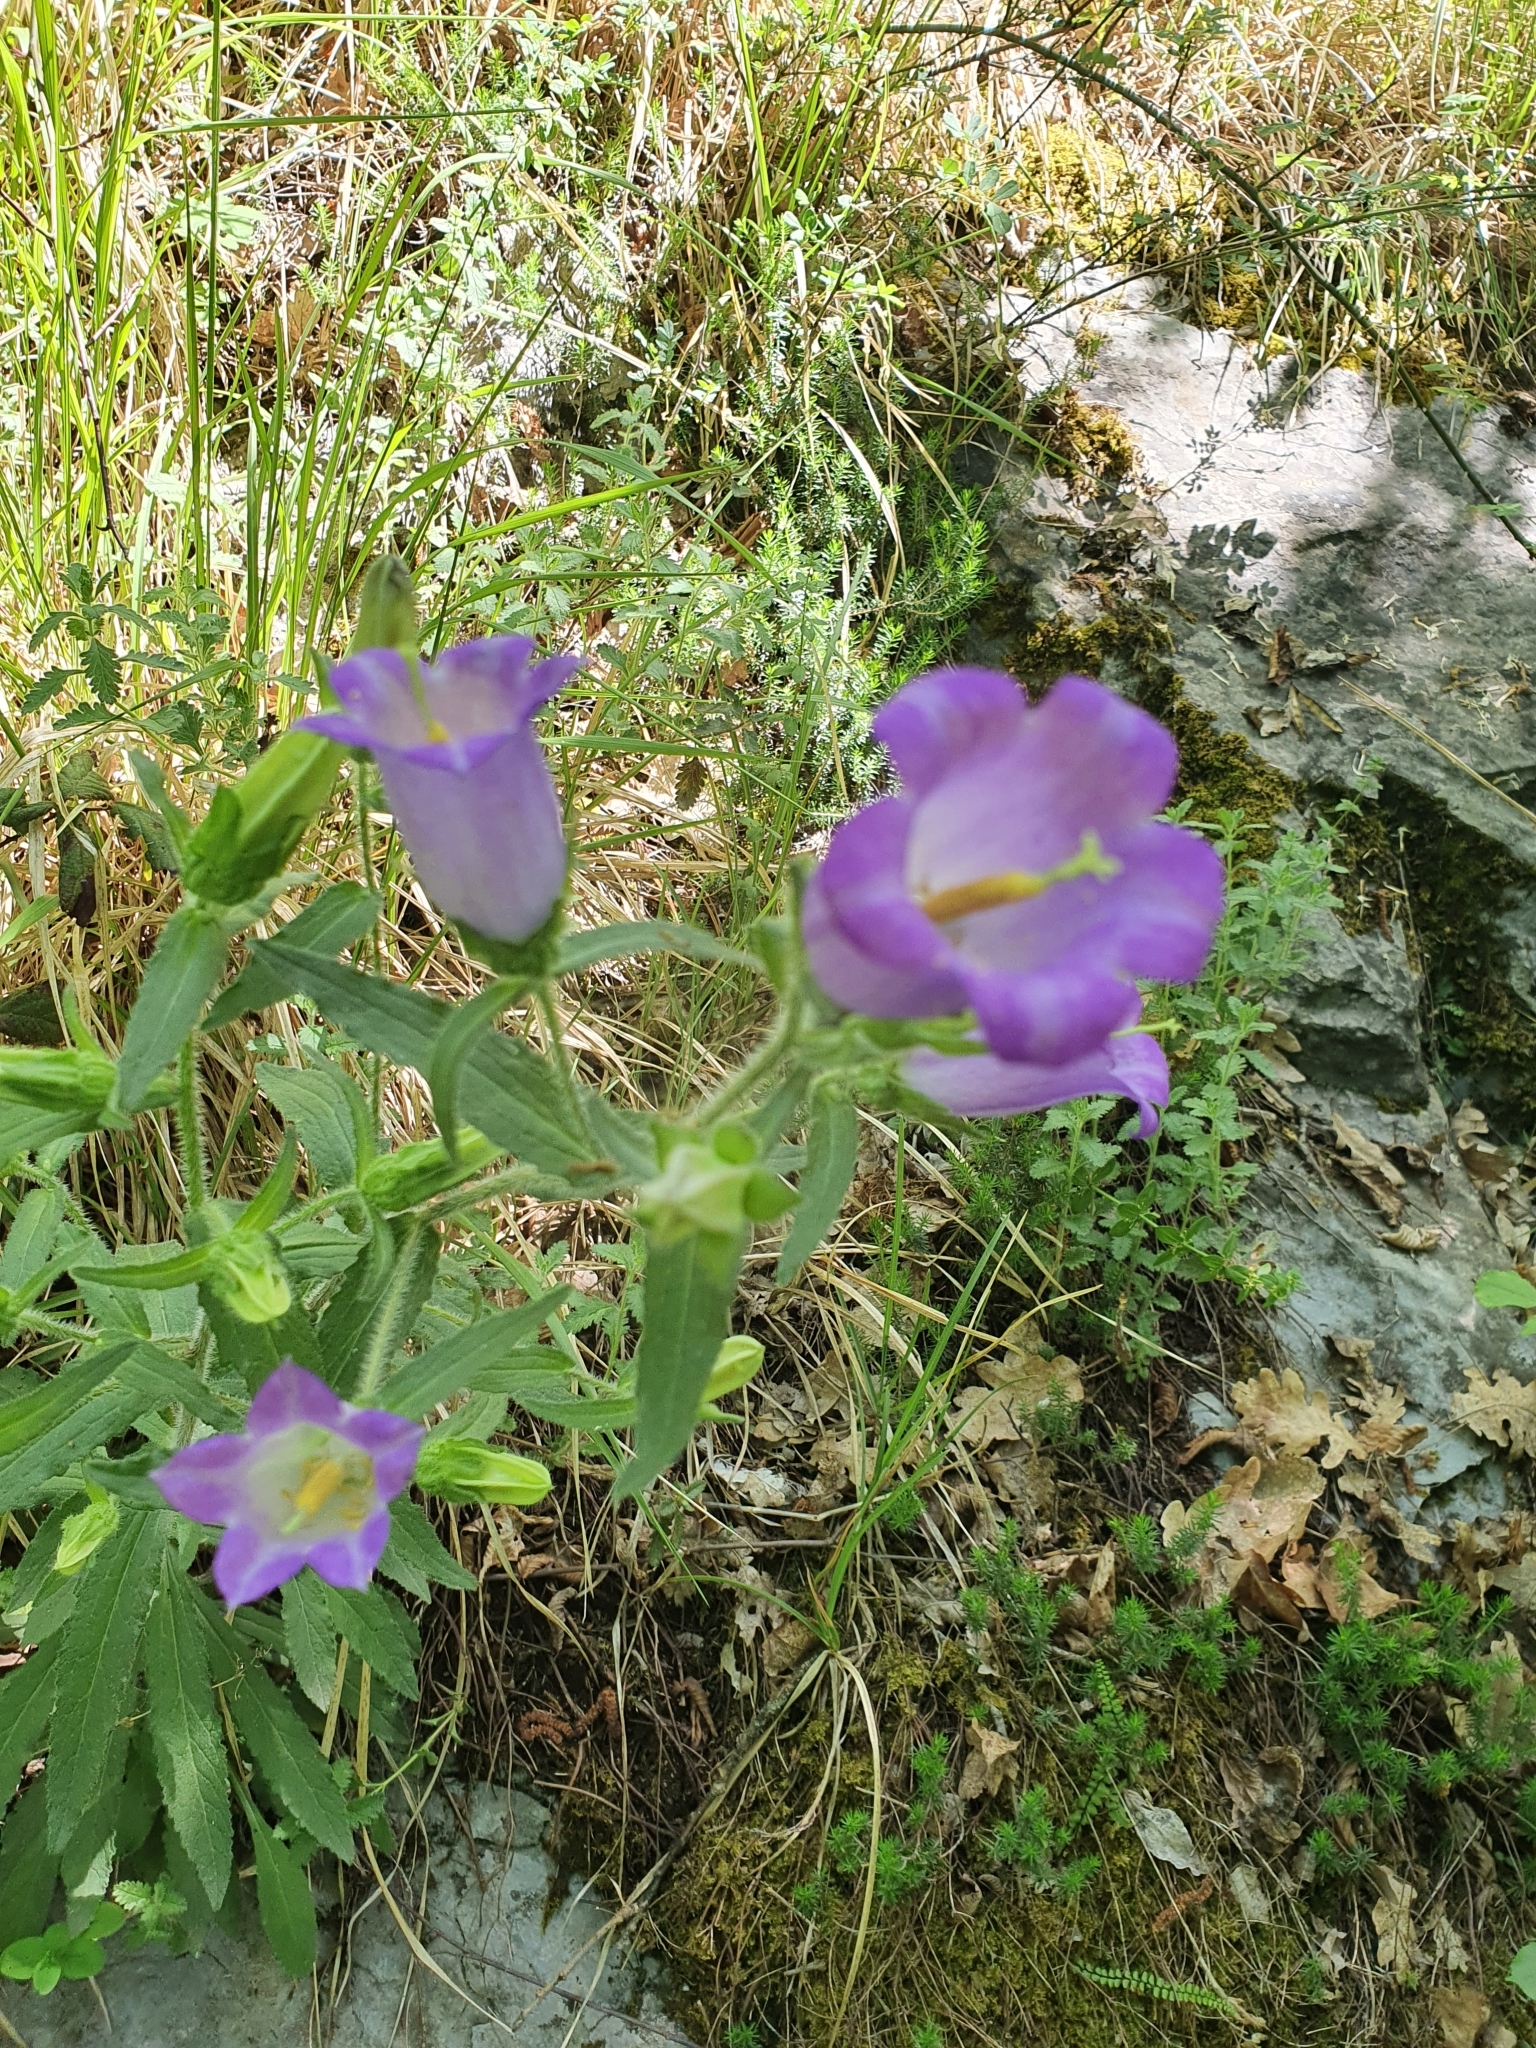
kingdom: Plantae
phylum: Tracheophyta
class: Magnoliopsida
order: Asterales
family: Campanulaceae
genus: Campanula
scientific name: Campanula medium
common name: Canterbury bells
